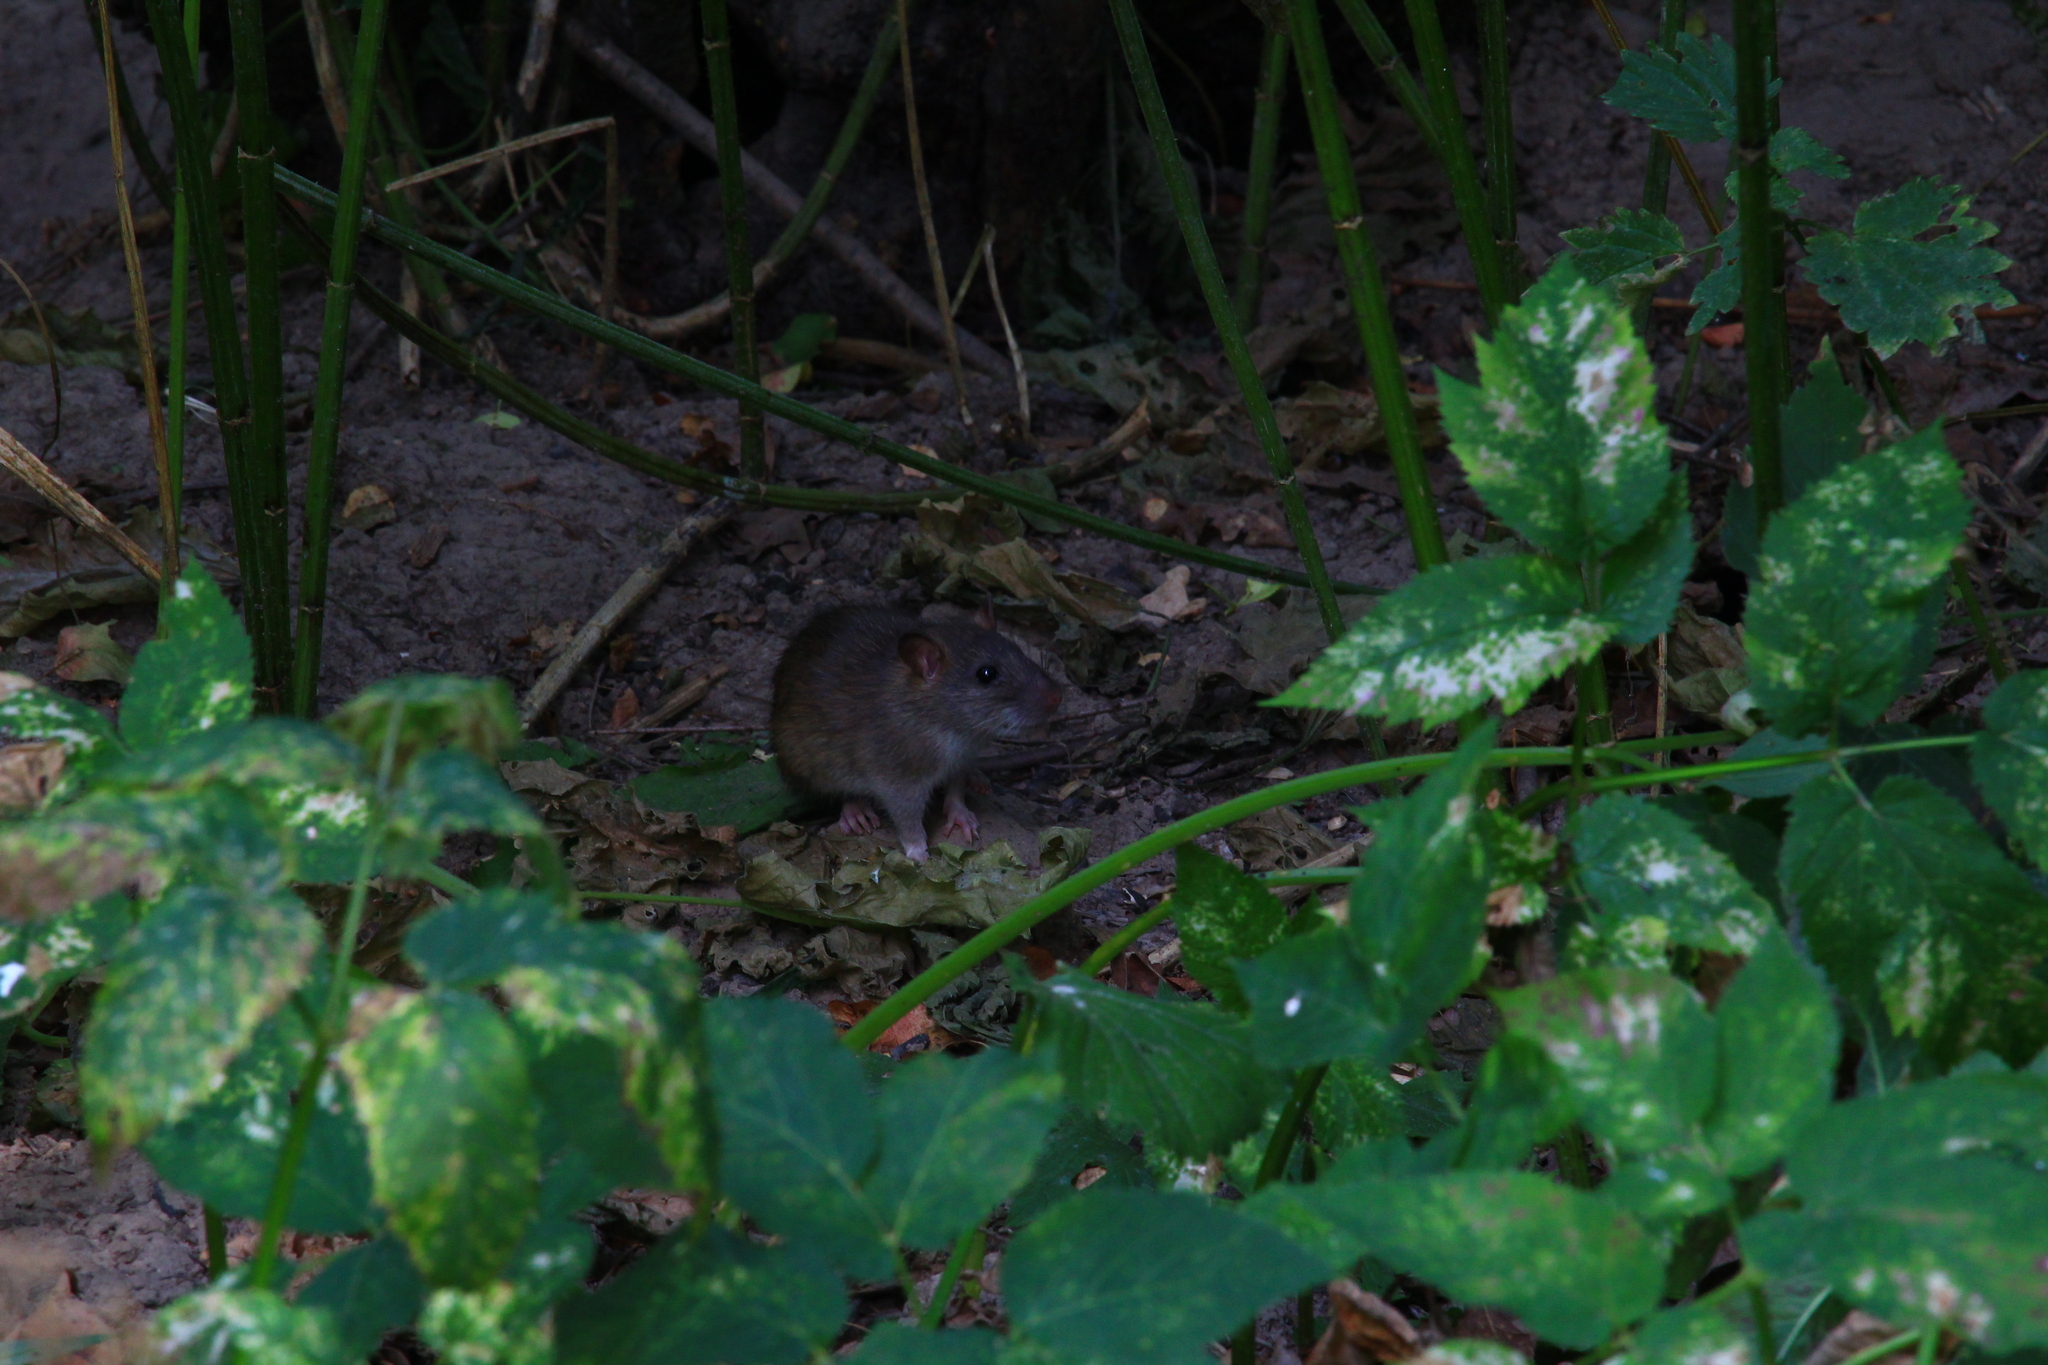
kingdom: Animalia
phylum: Chordata
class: Mammalia
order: Rodentia
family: Muridae
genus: Rattus
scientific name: Rattus norvegicus
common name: Brown rat
